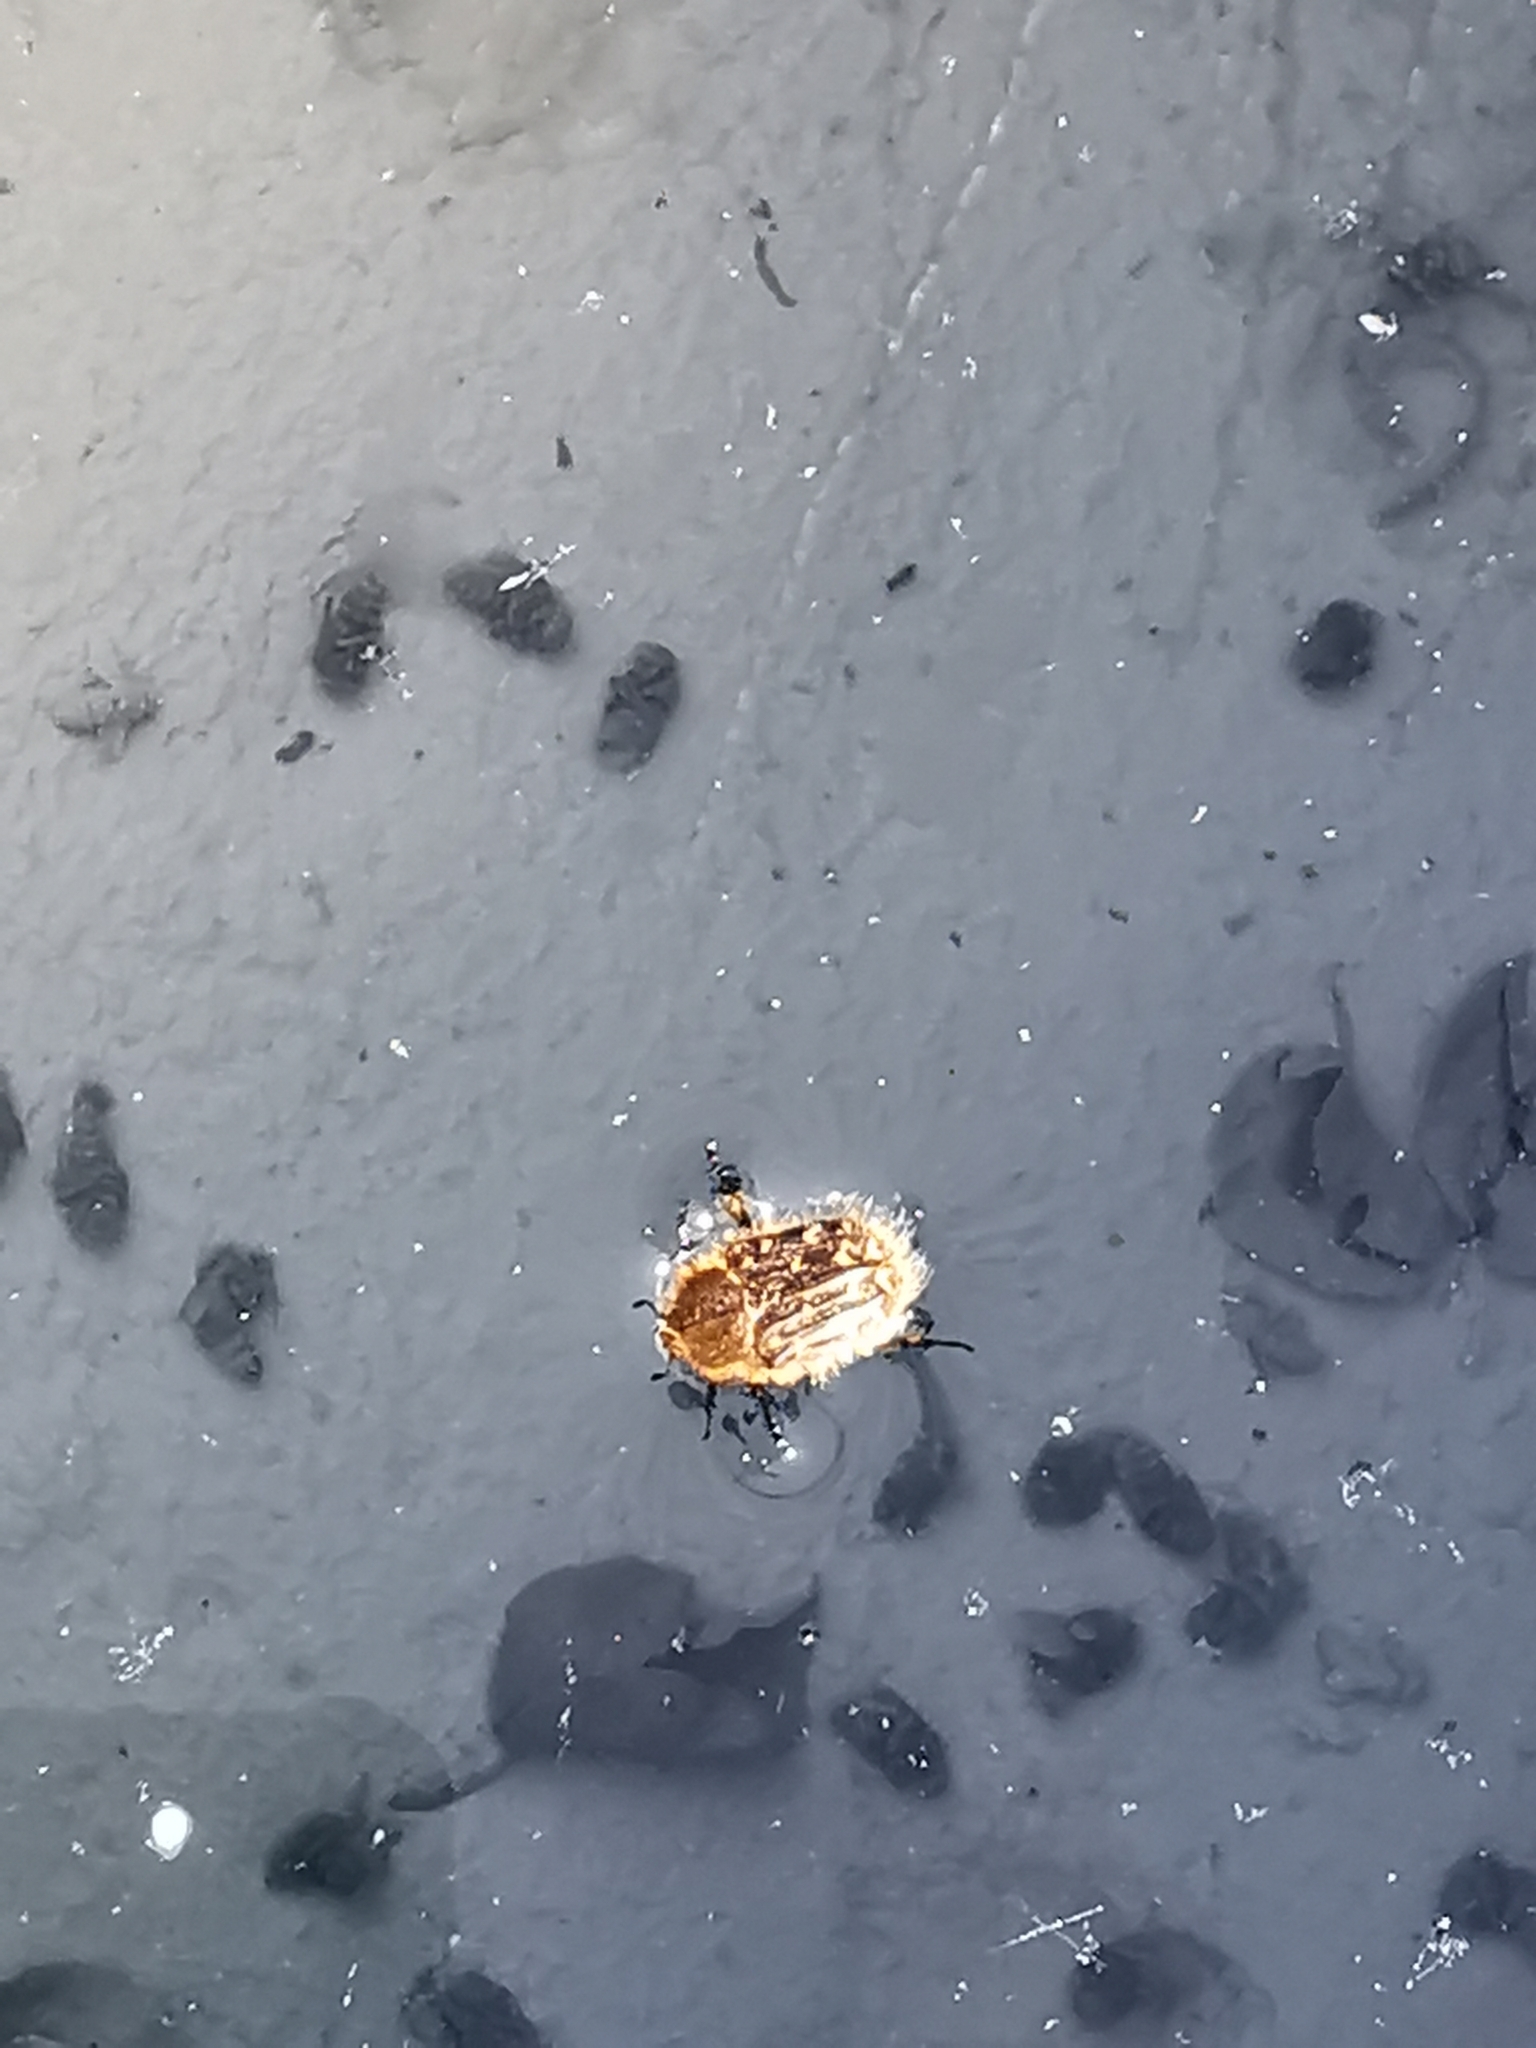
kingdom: Animalia
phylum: Arthropoda
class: Insecta
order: Coleoptera
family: Scarabaeidae
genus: Tropinota
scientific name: Tropinota squalida
